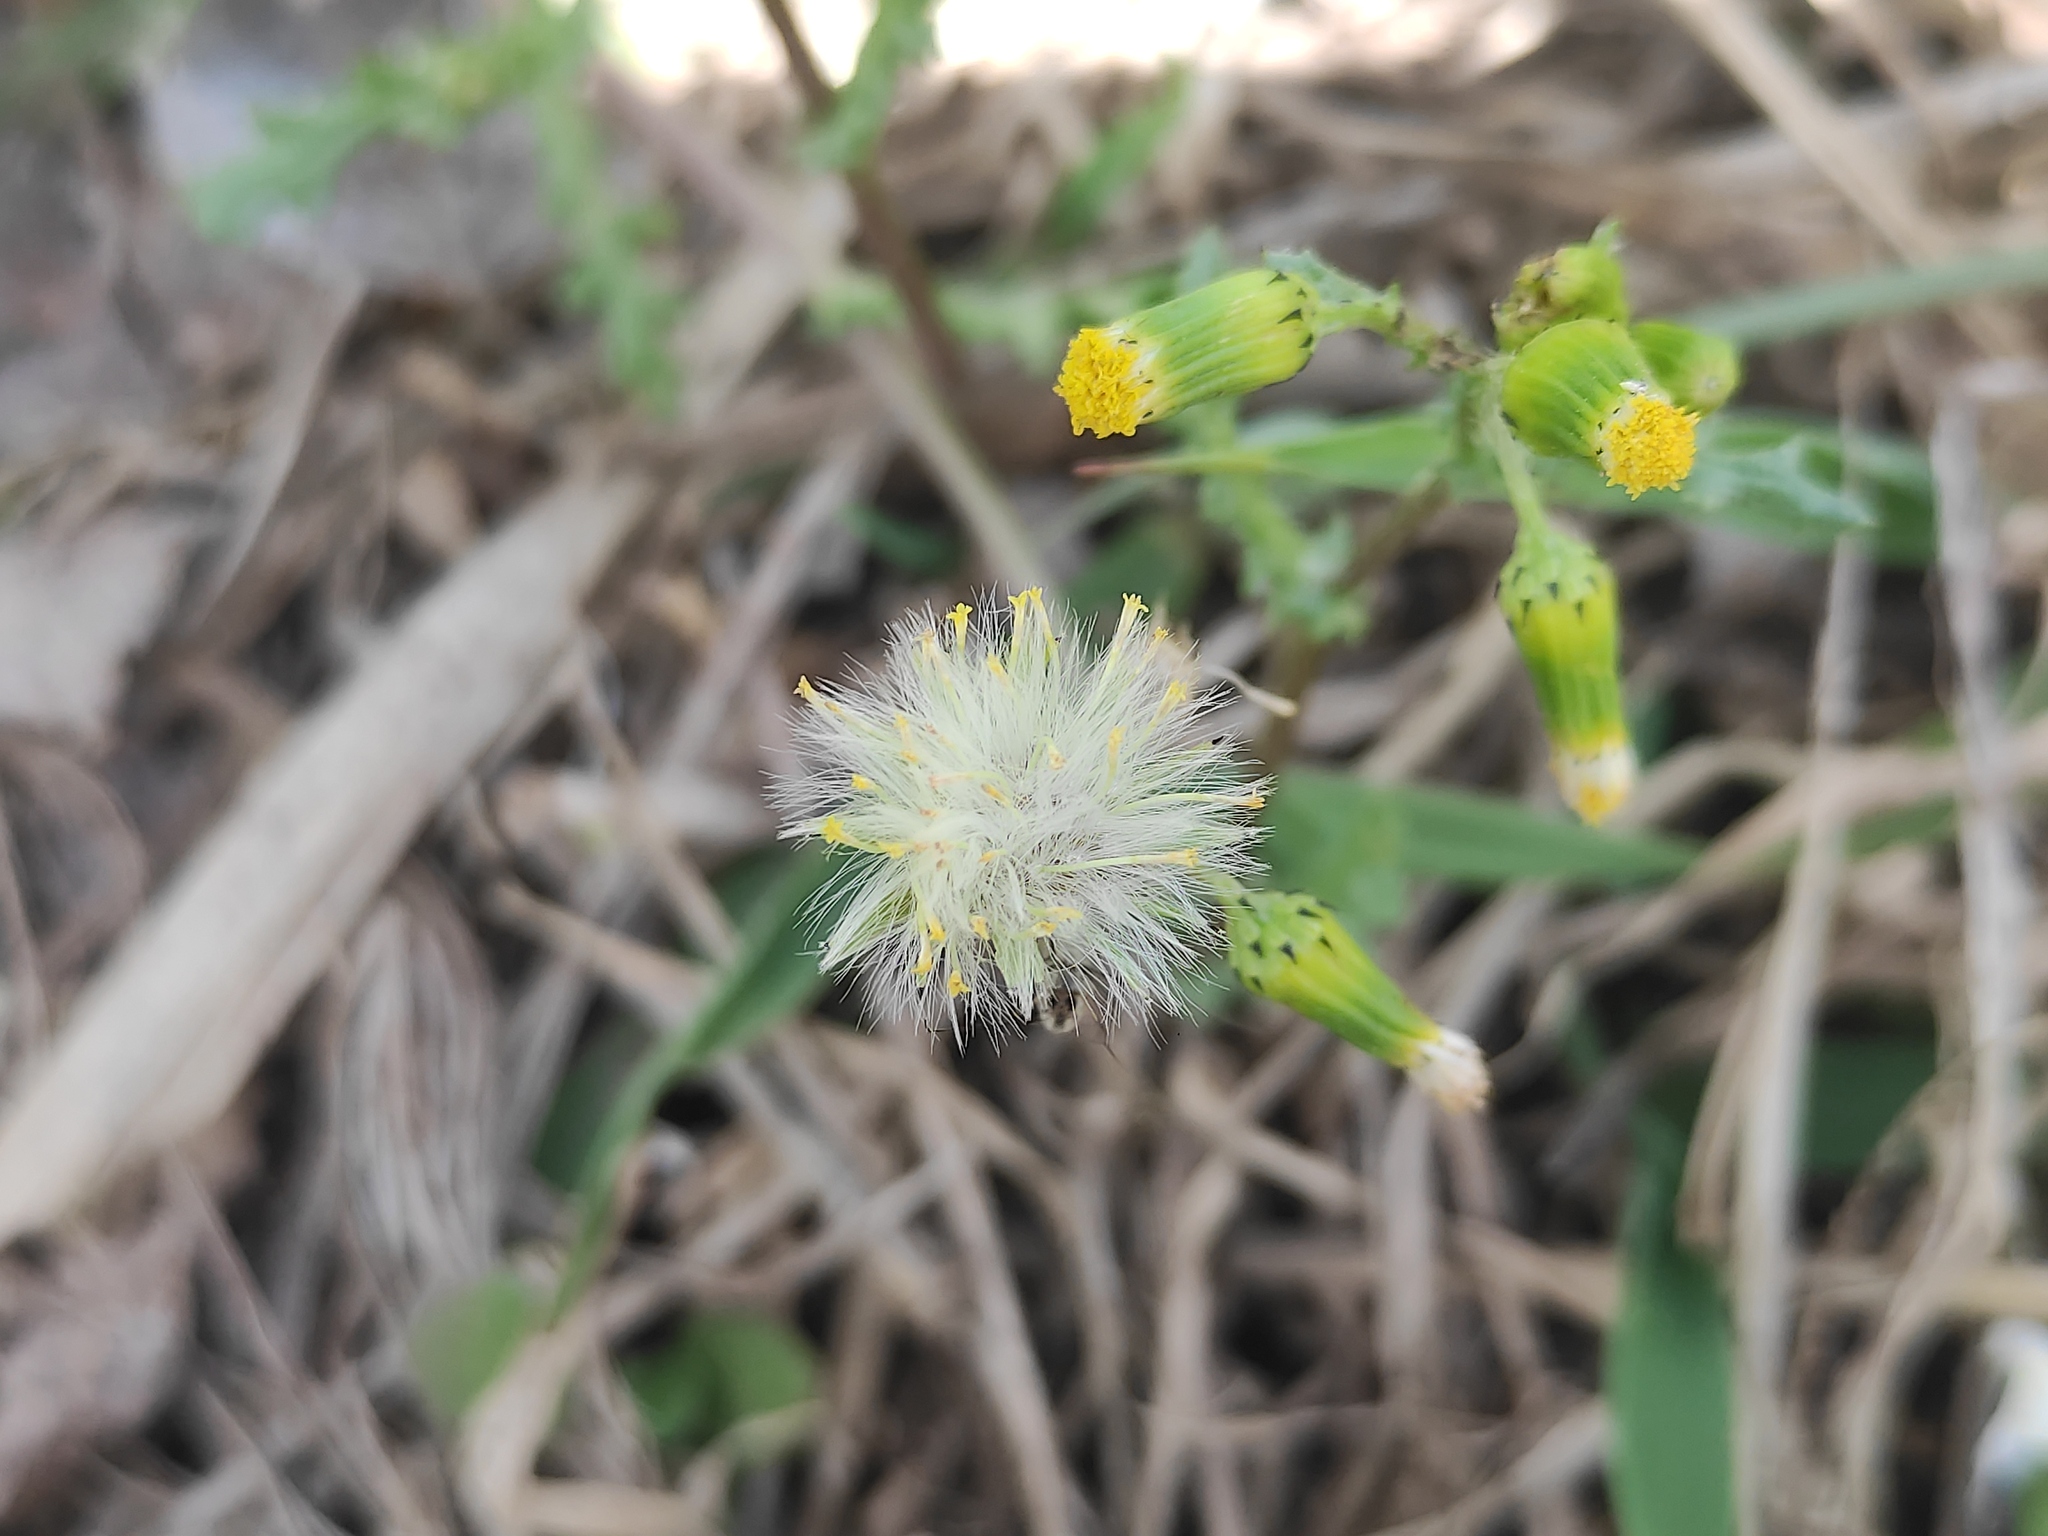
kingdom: Plantae
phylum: Tracheophyta
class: Magnoliopsida
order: Asterales
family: Asteraceae
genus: Senecio
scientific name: Senecio vulgaris
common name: Old-man-in-the-spring
